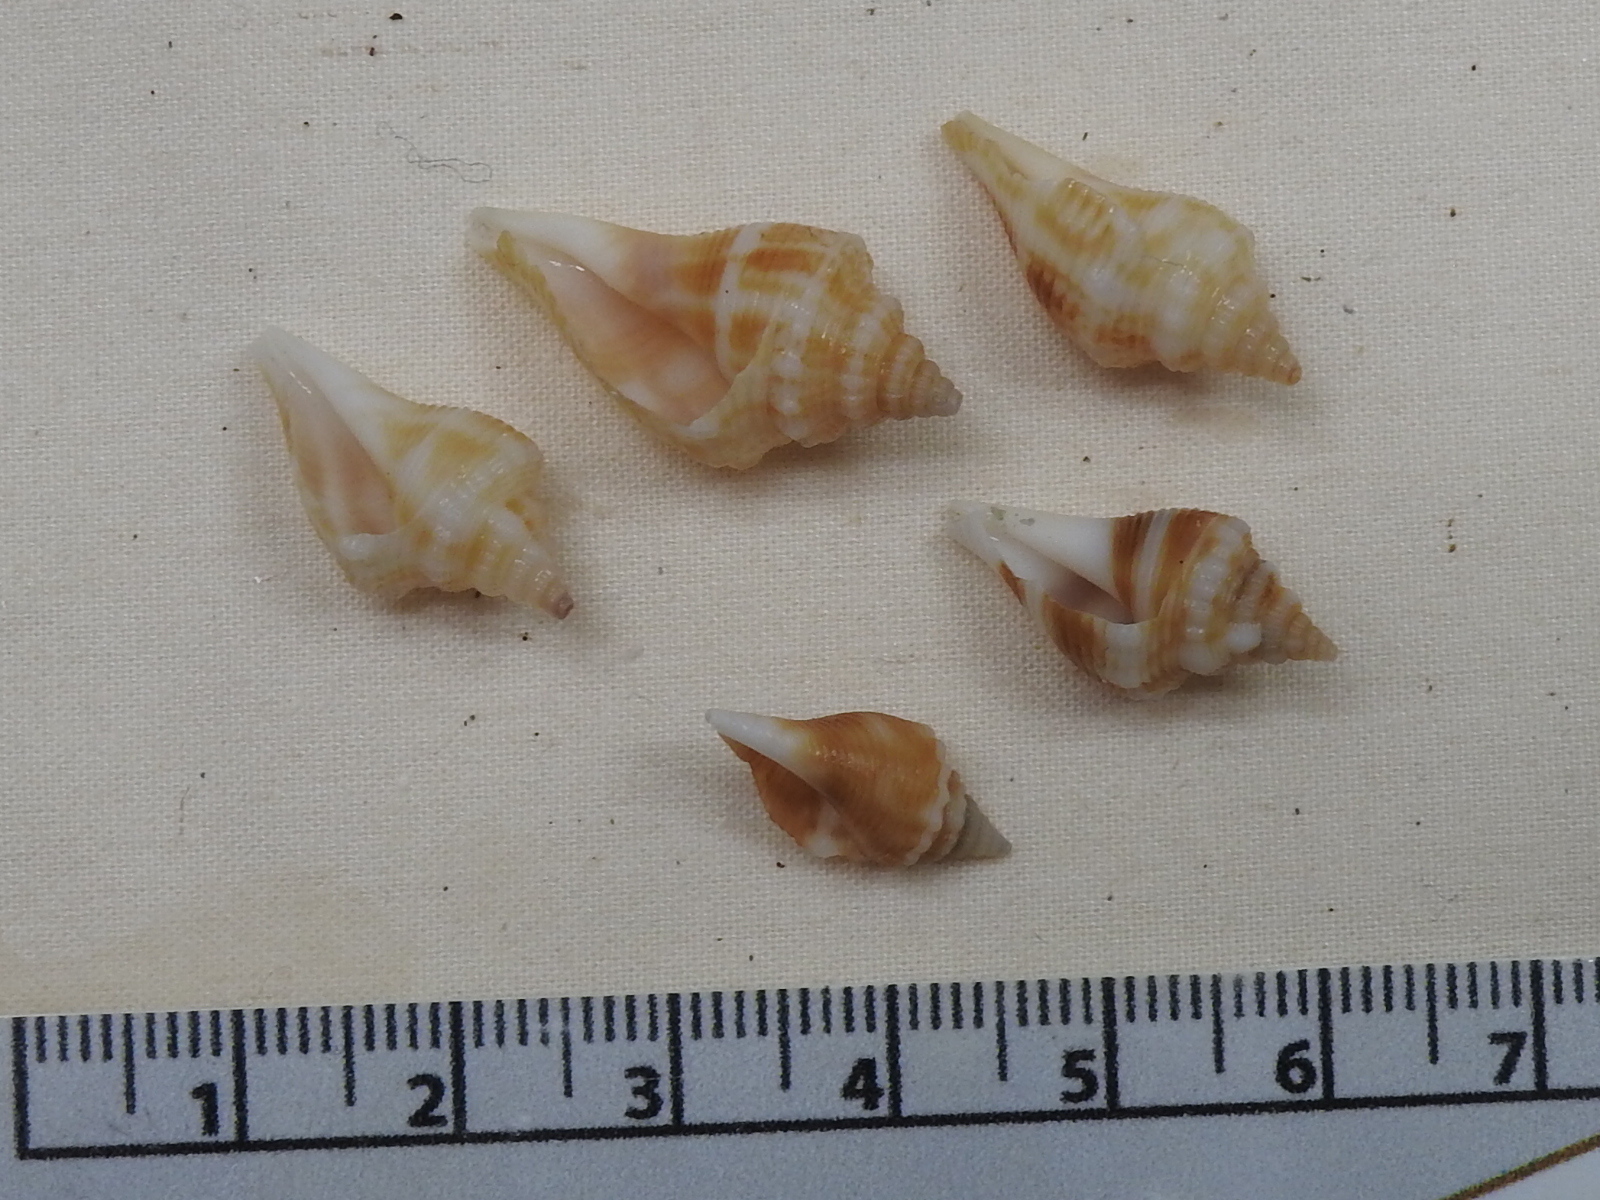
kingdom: Animalia
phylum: Mollusca
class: Gastropoda
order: Littorinimorpha
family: Strombidae
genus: Strombus
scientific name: Strombus alatus
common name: Florida fighting conch
